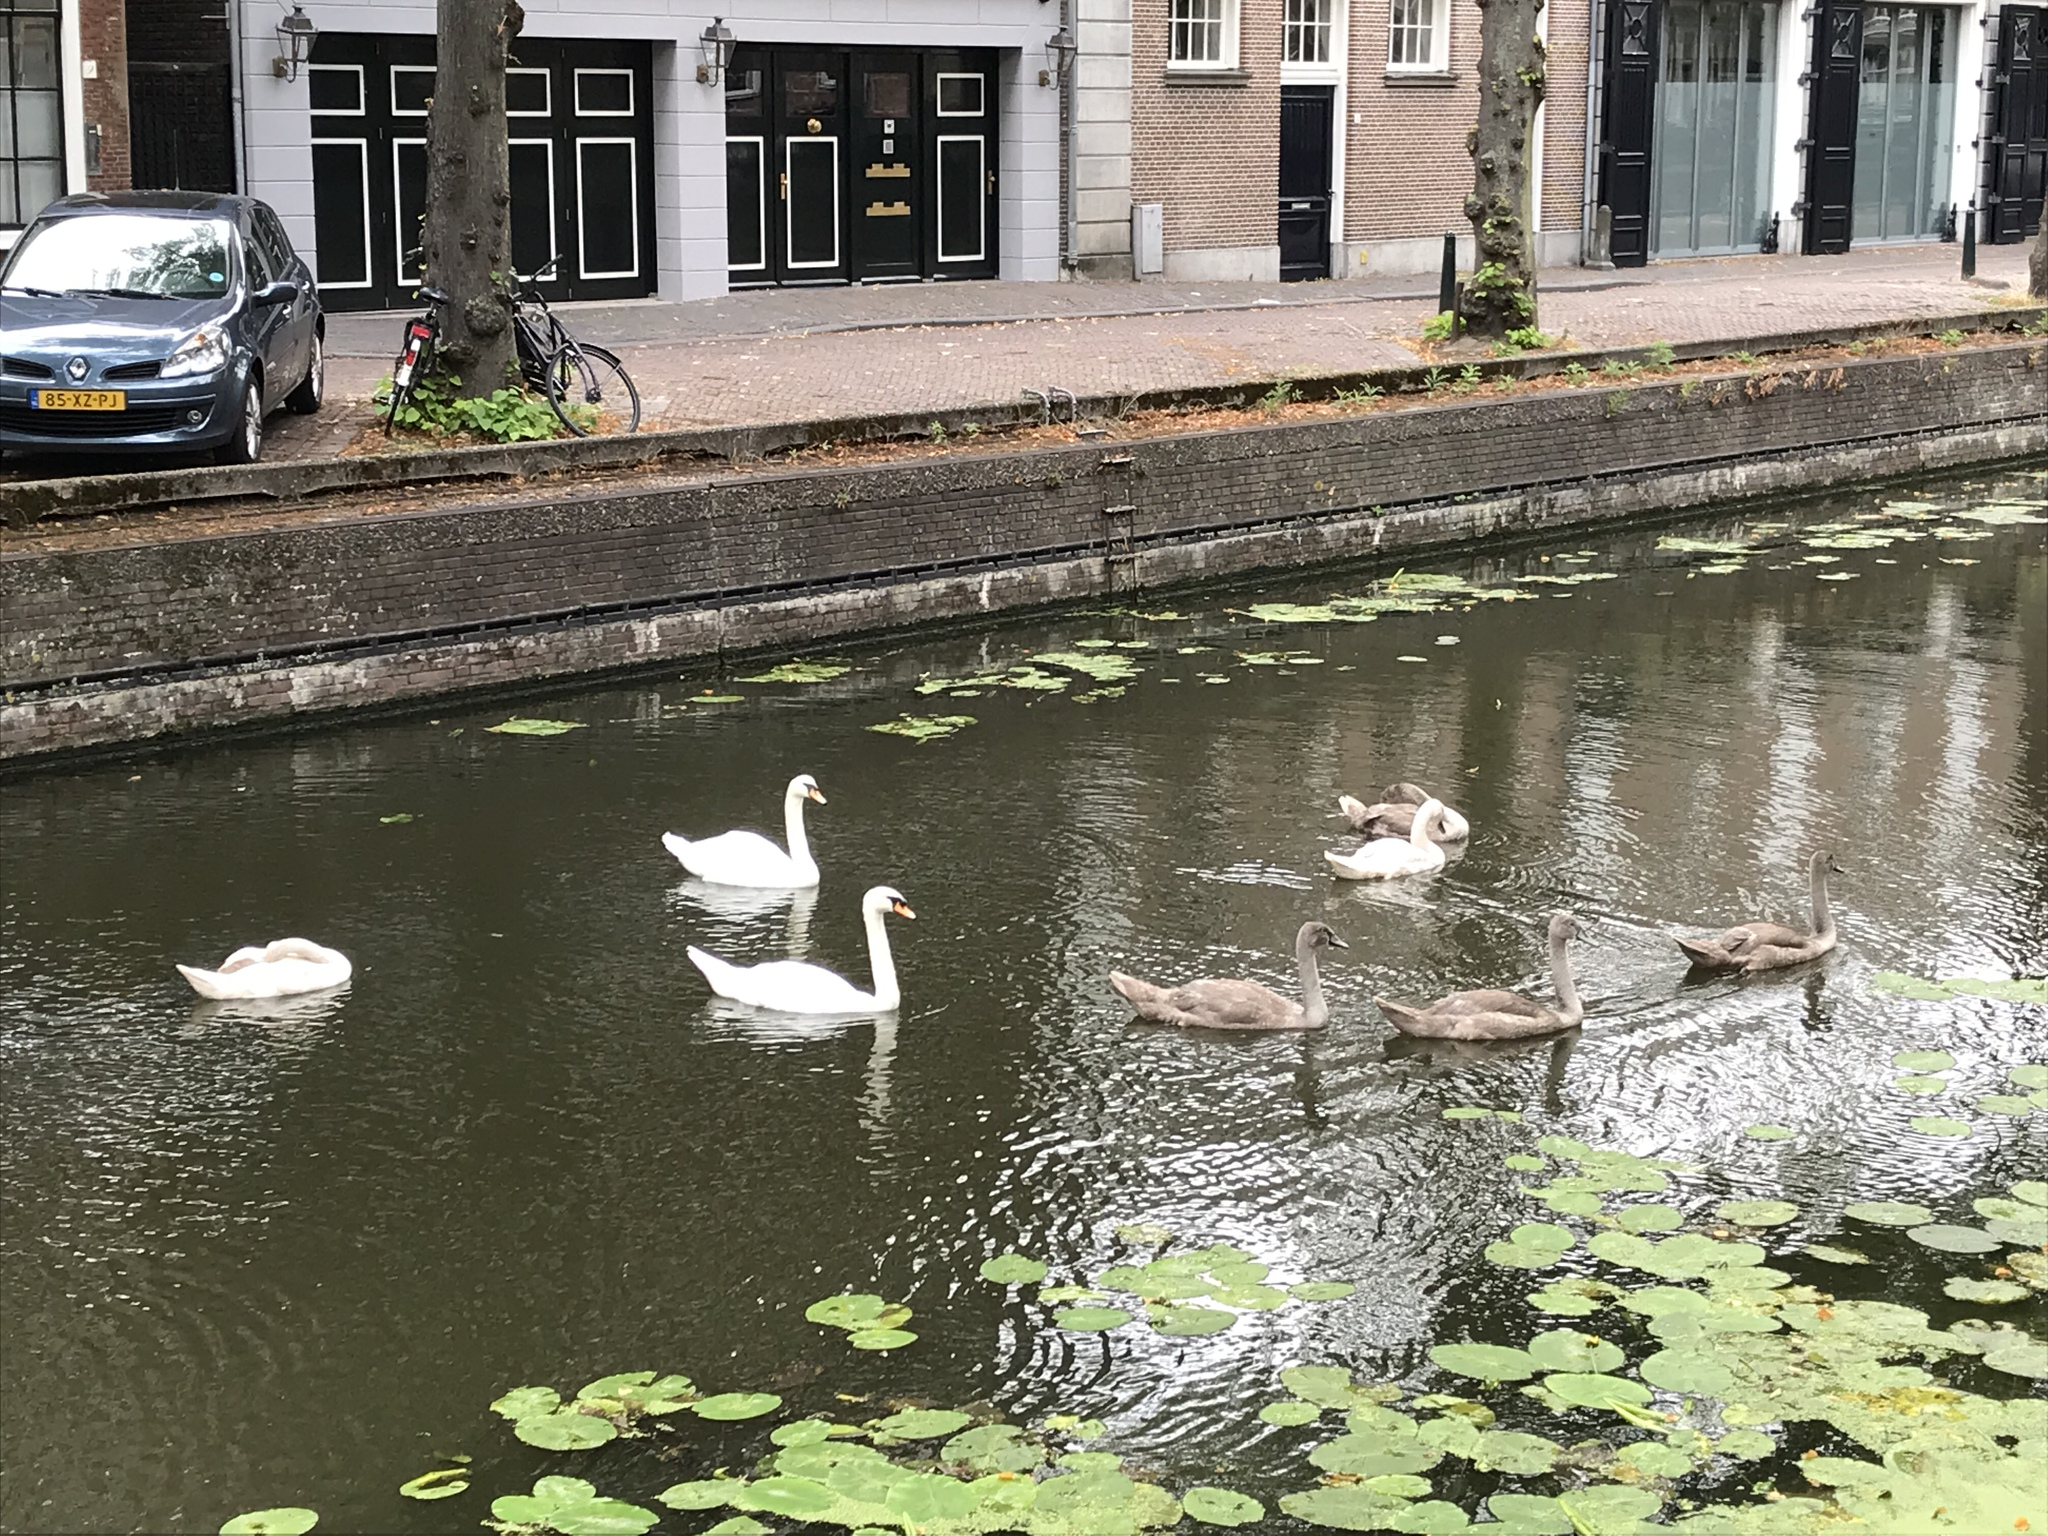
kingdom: Animalia
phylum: Chordata
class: Aves
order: Anseriformes
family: Anatidae
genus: Cygnus
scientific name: Cygnus olor
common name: Mute swan
